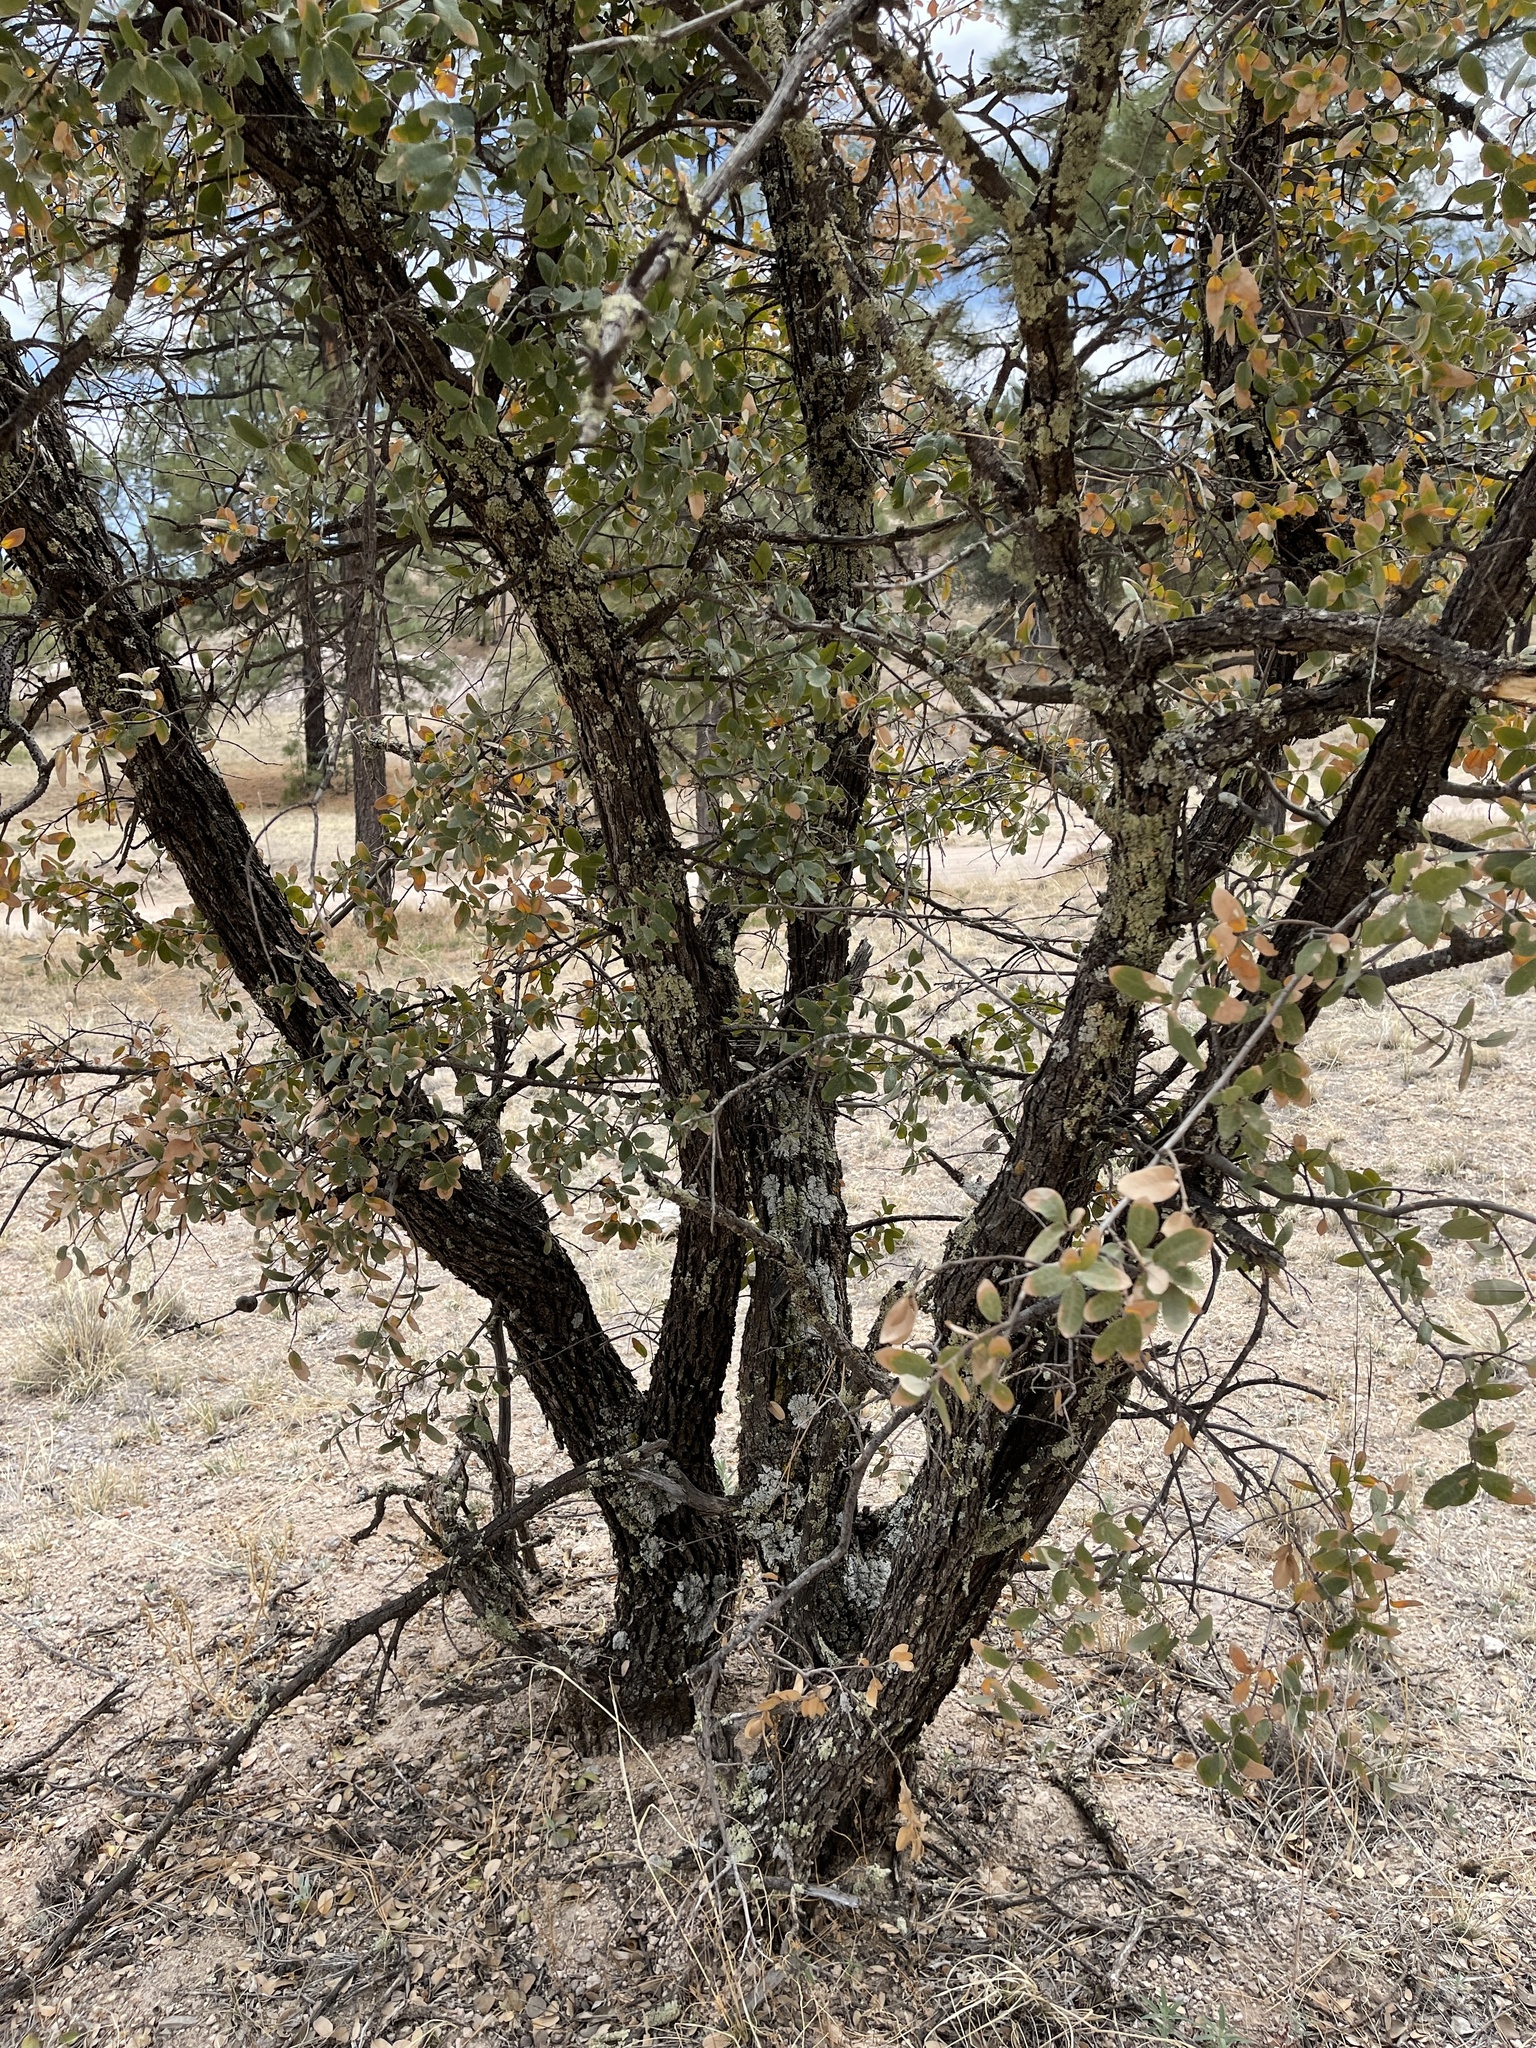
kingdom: Plantae
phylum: Tracheophyta
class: Magnoliopsida
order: Fagales
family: Fagaceae
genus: Quercus
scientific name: Quercus grisea
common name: Gray oak
